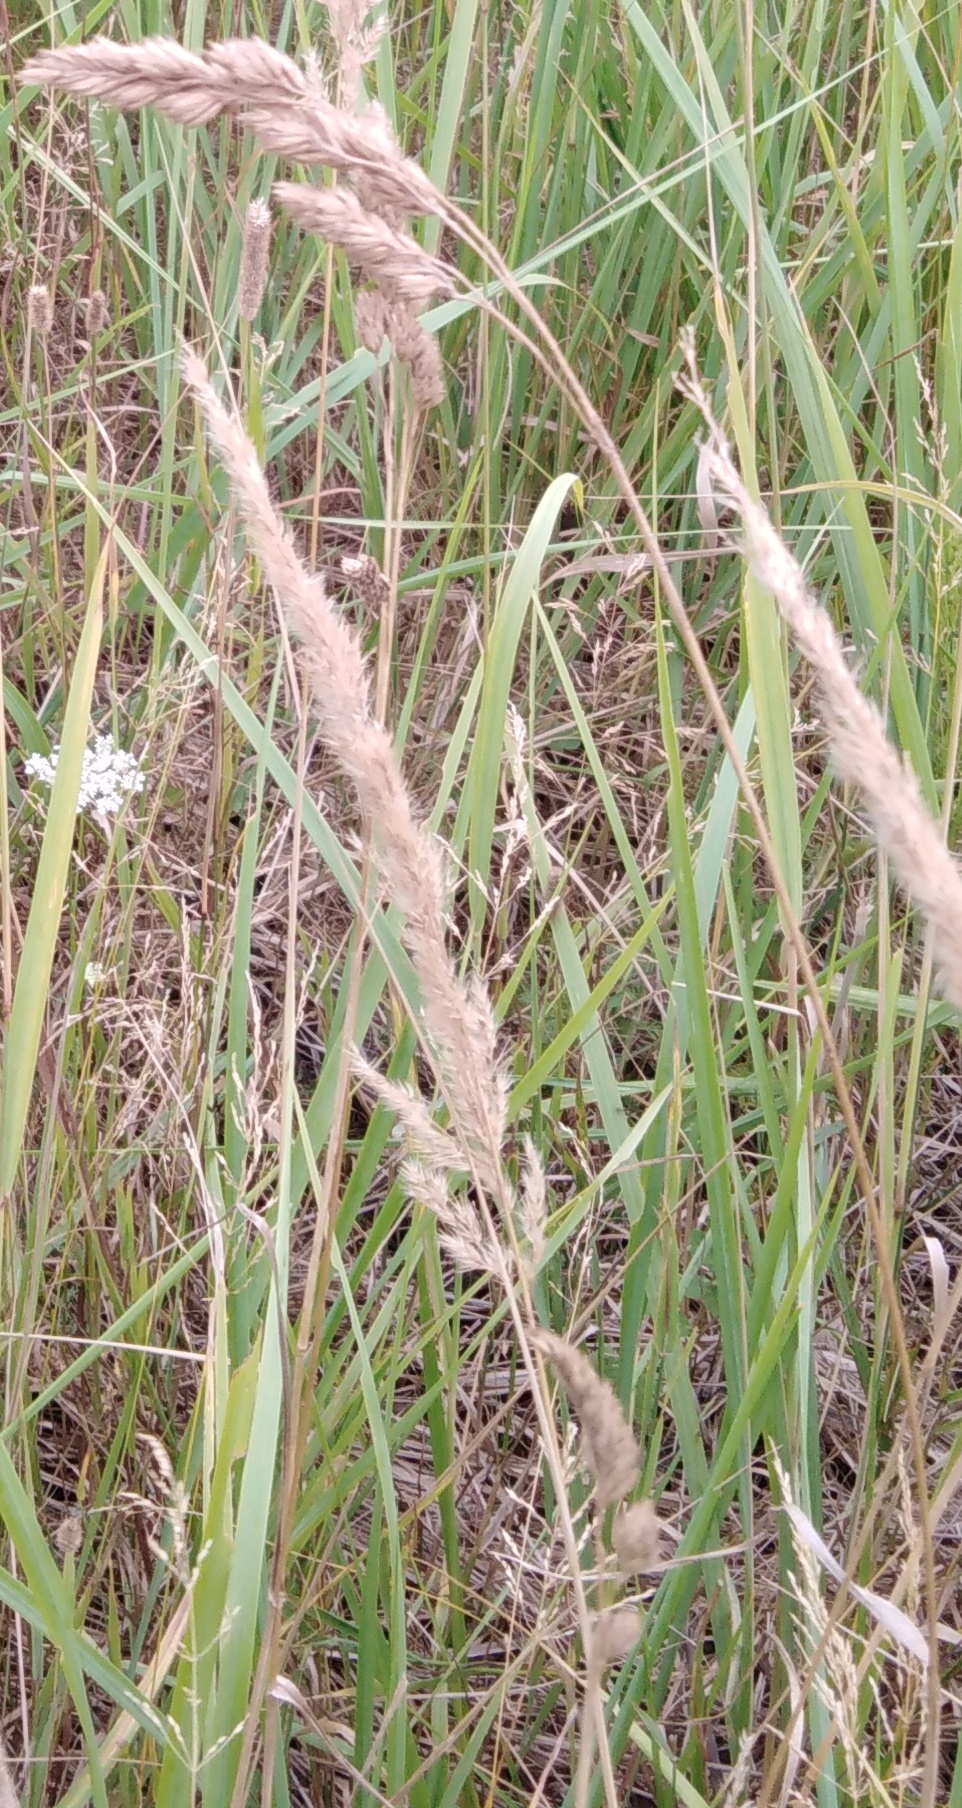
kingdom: Plantae
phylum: Tracheophyta
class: Liliopsida
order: Poales
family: Poaceae
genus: Dactylis
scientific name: Dactylis glomerata
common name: Orchardgrass
